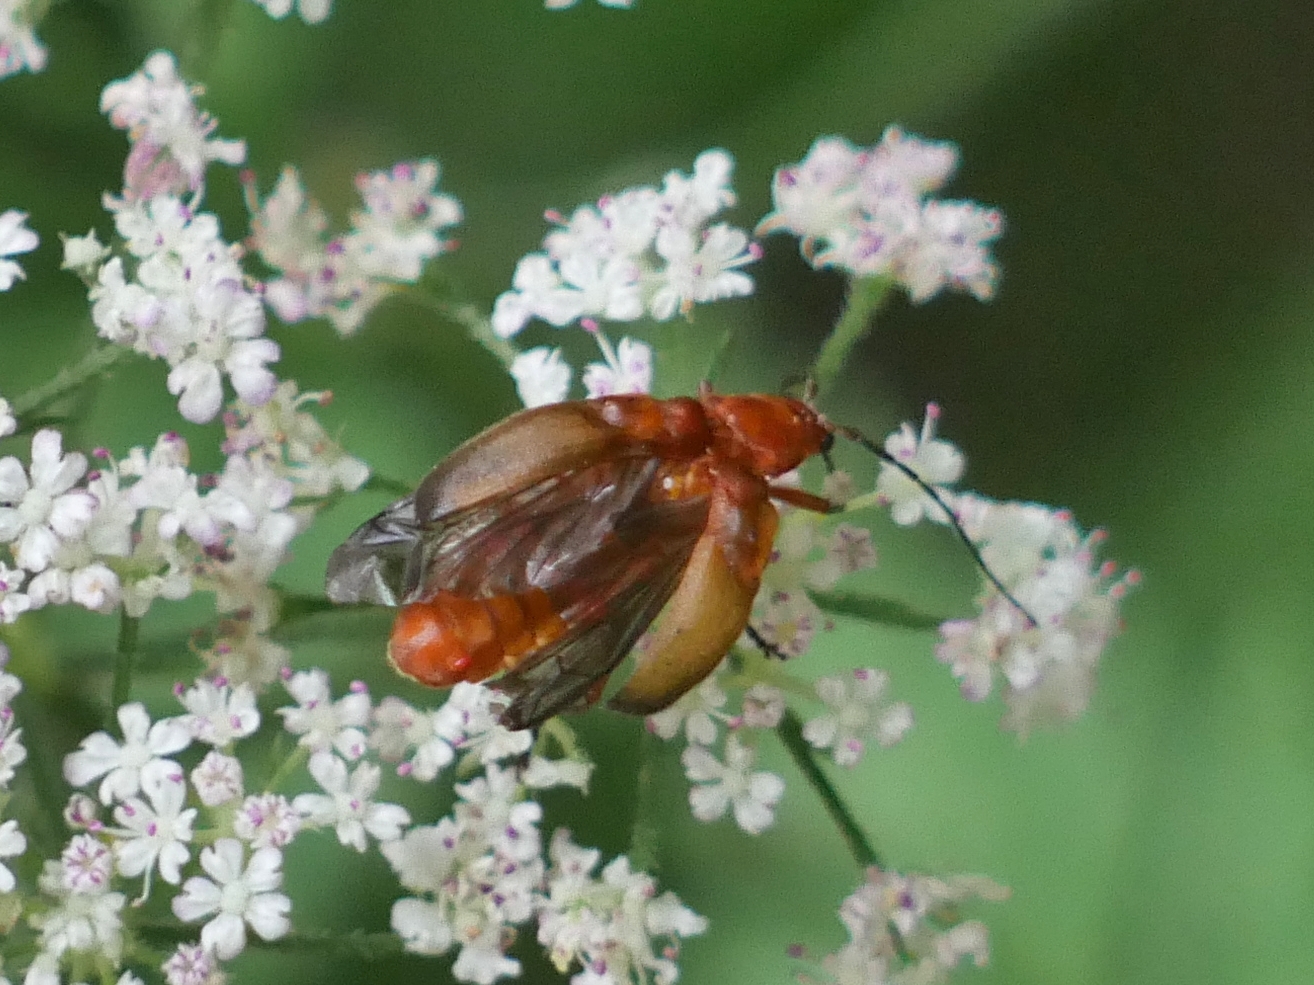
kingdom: Animalia
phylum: Arthropoda
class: Insecta
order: Coleoptera
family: Cantharidae
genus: Rhagonycha
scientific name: Rhagonycha fulva
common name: Common red soldier beetle
